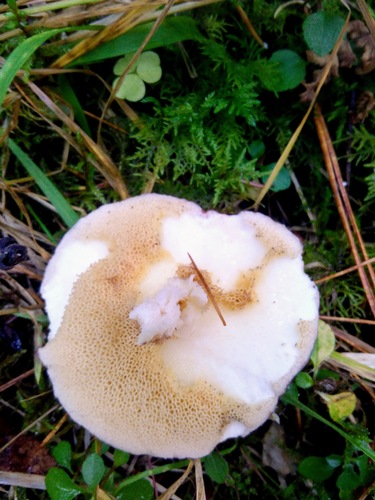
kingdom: Fungi
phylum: Basidiomycota
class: Agaricomycetes
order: Boletales
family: Suillaceae
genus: Suillus
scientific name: Suillus placidus
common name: Slippery white bolete
